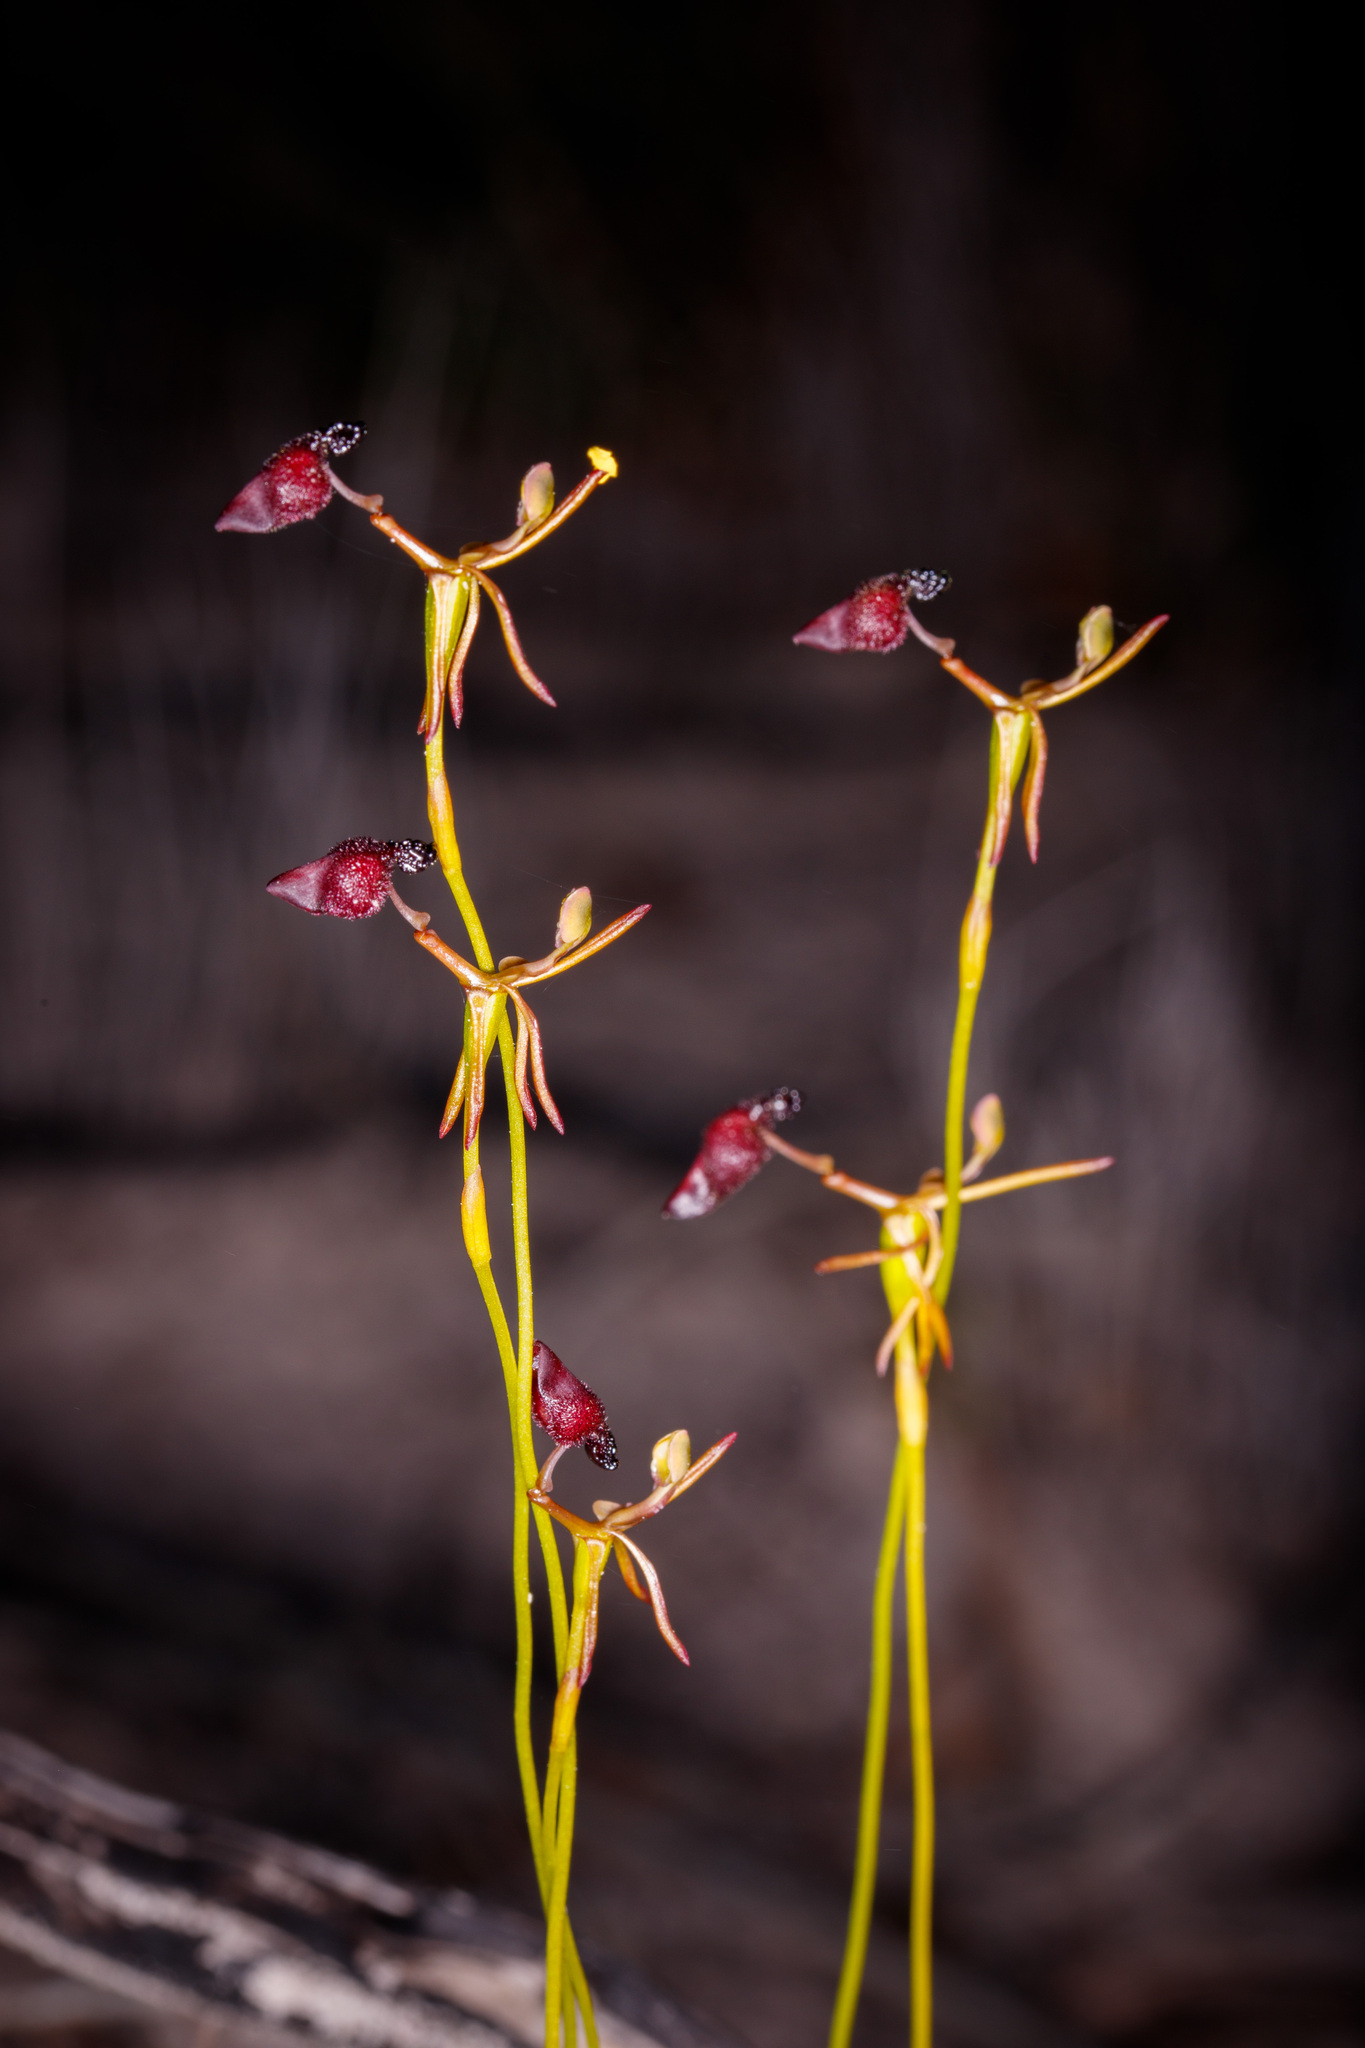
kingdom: Plantae
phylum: Tracheophyta
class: Liliopsida
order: Asparagales
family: Orchidaceae
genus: Drakaea
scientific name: Drakaea glyptodon
